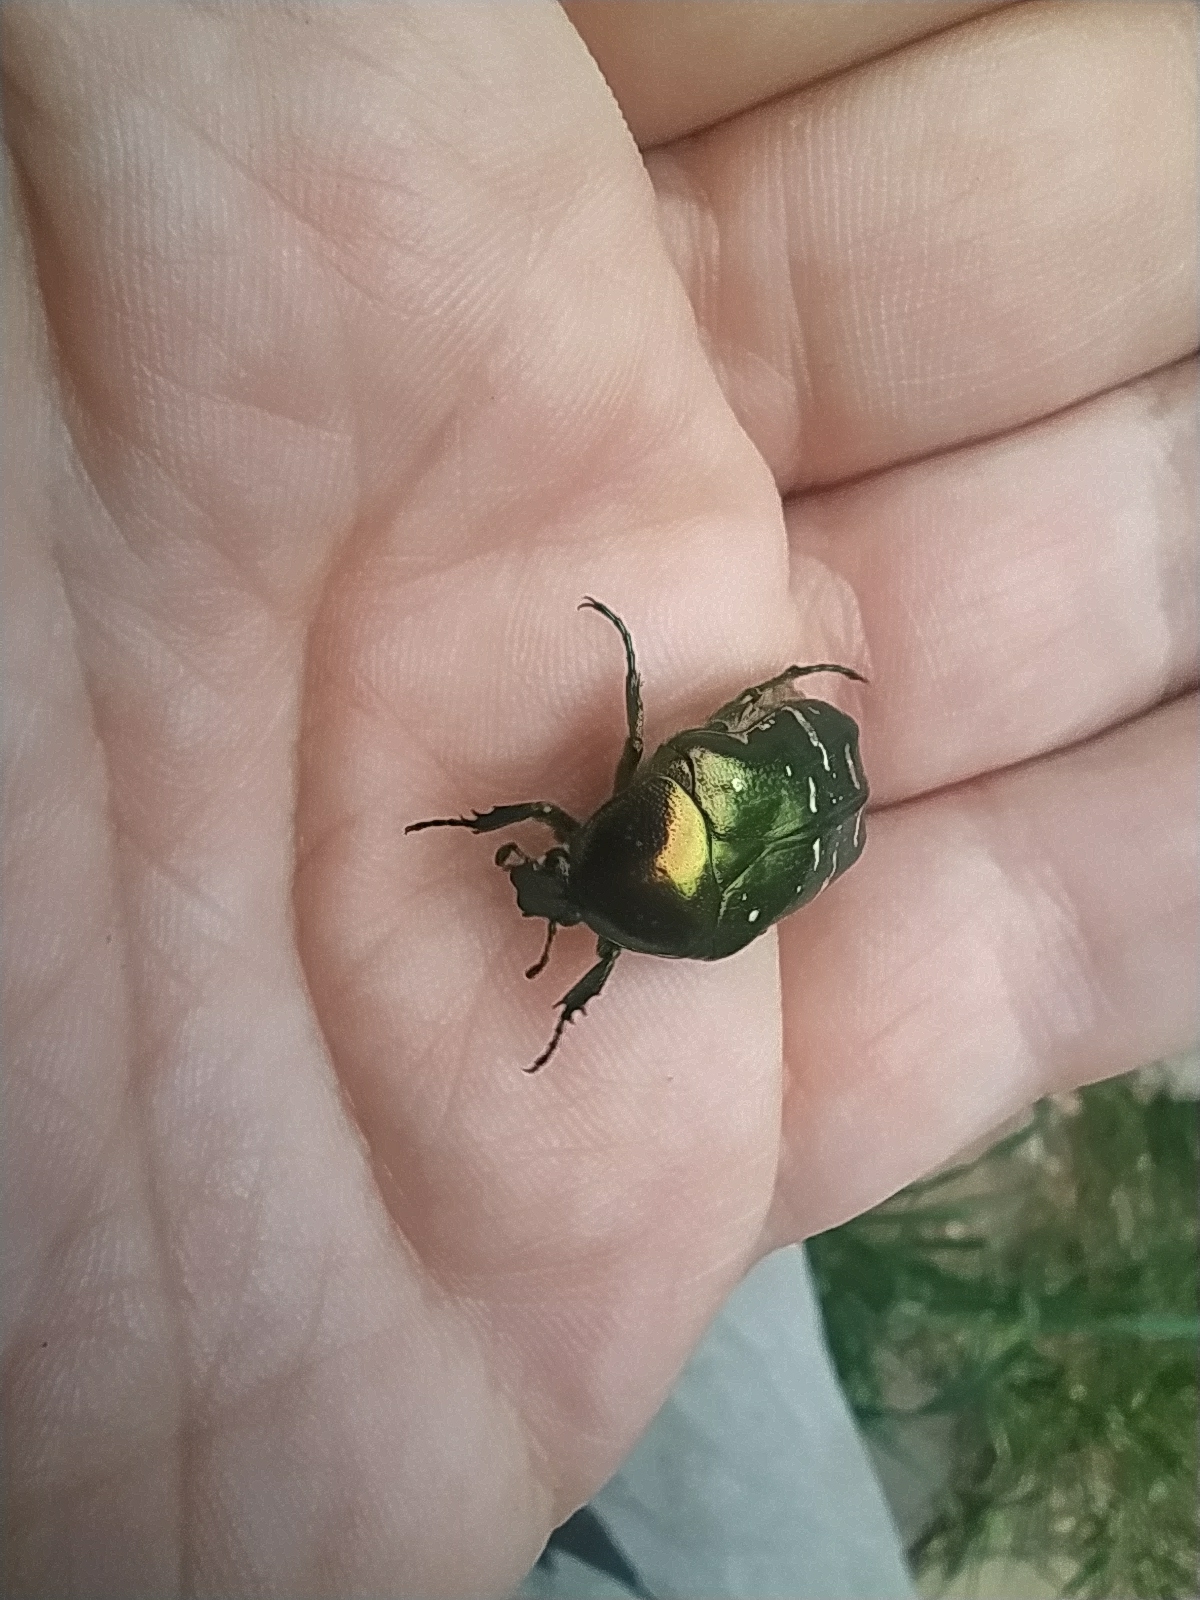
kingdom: Animalia
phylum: Arthropoda
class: Insecta
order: Coleoptera
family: Scarabaeidae
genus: Cetonia
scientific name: Cetonia aurata
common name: Rose chafer
